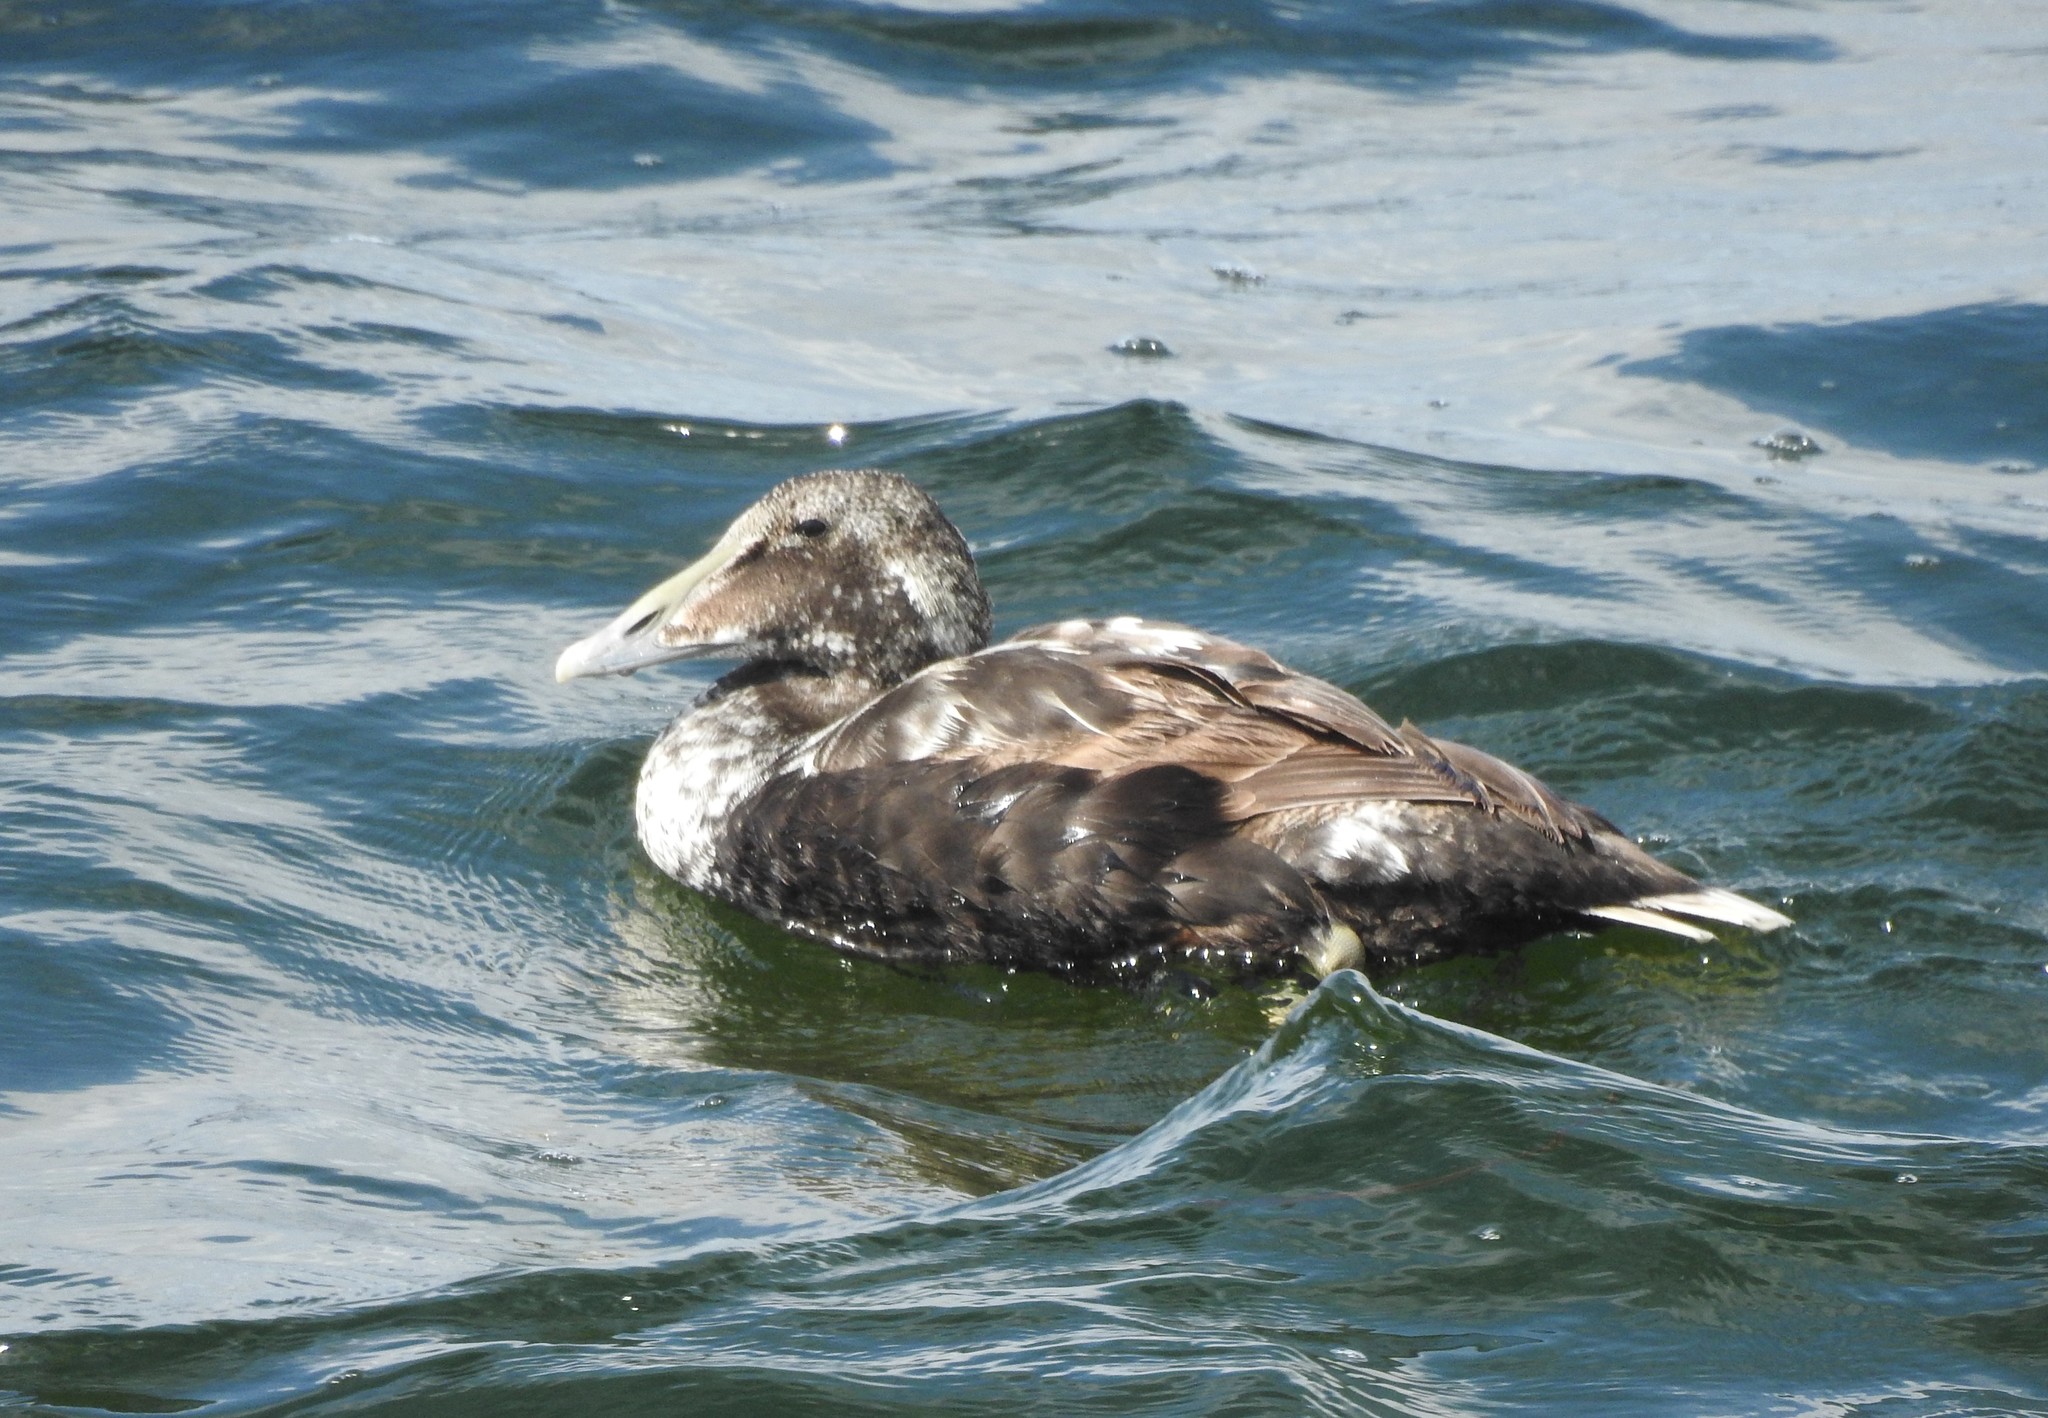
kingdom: Animalia
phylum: Chordata
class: Aves
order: Anseriformes
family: Anatidae
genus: Somateria
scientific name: Somateria mollissima
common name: Common eider
